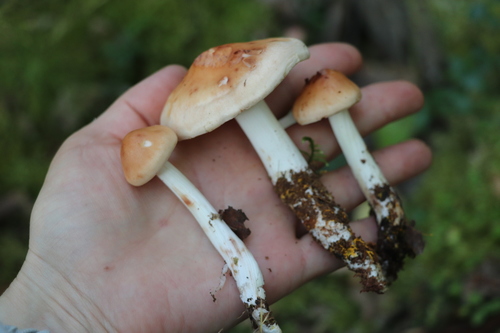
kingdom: Fungi
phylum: Basidiomycota
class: Agaricomycetes
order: Agaricales
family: Omphalotaceae
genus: Rhodocollybia
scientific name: Rhodocollybia maculata
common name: Spotted tough-shank
